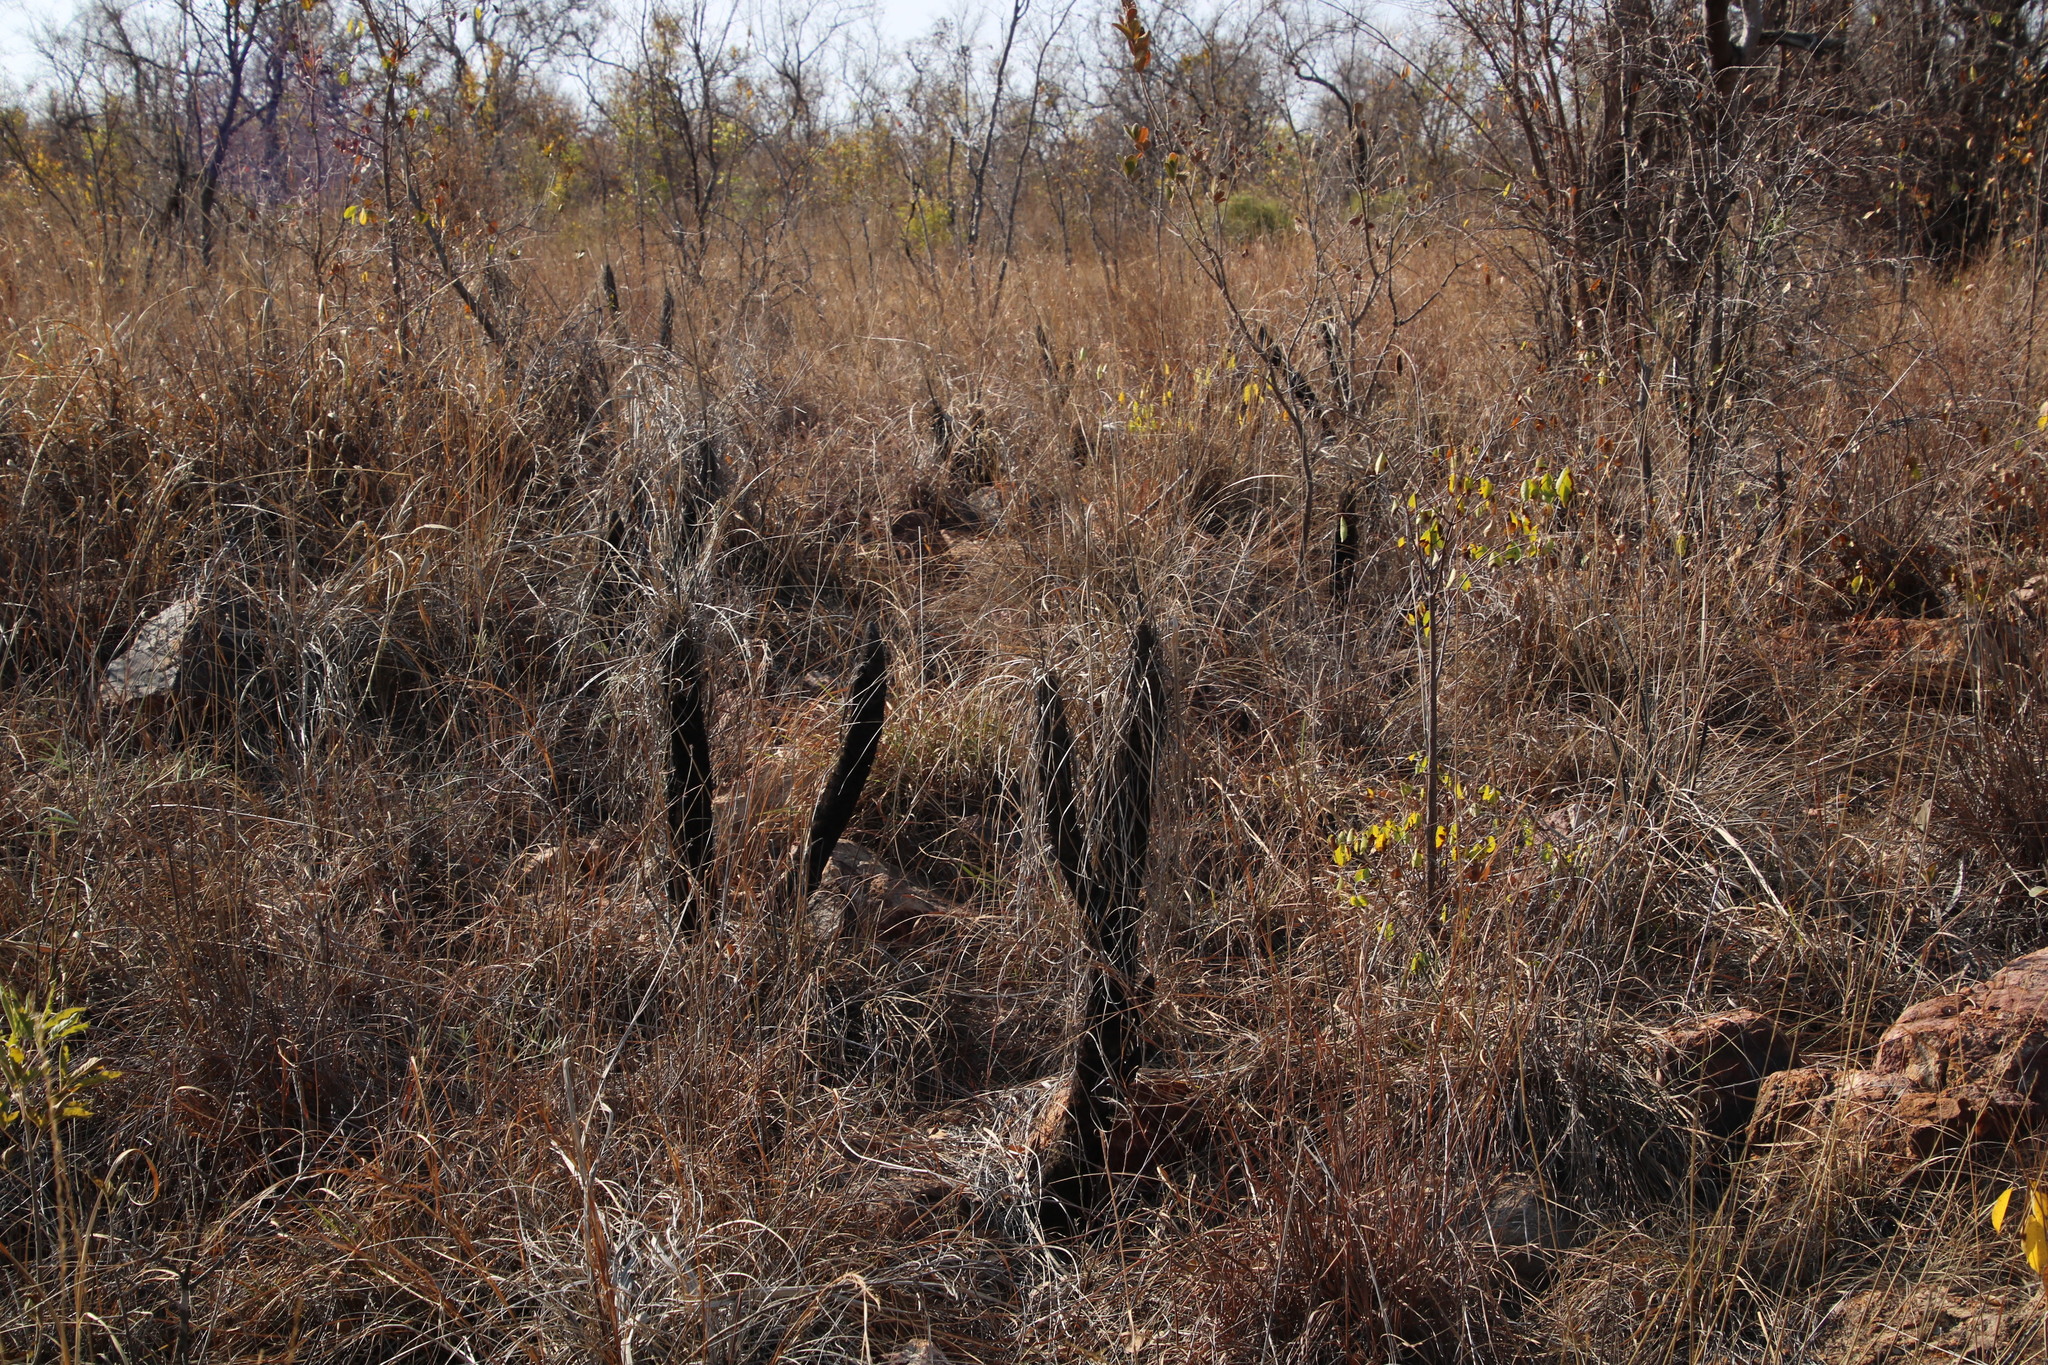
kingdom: Plantae
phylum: Tracheophyta
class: Liliopsida
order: Pandanales
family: Velloziaceae
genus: Xerophyta
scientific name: Xerophyta retinervis
